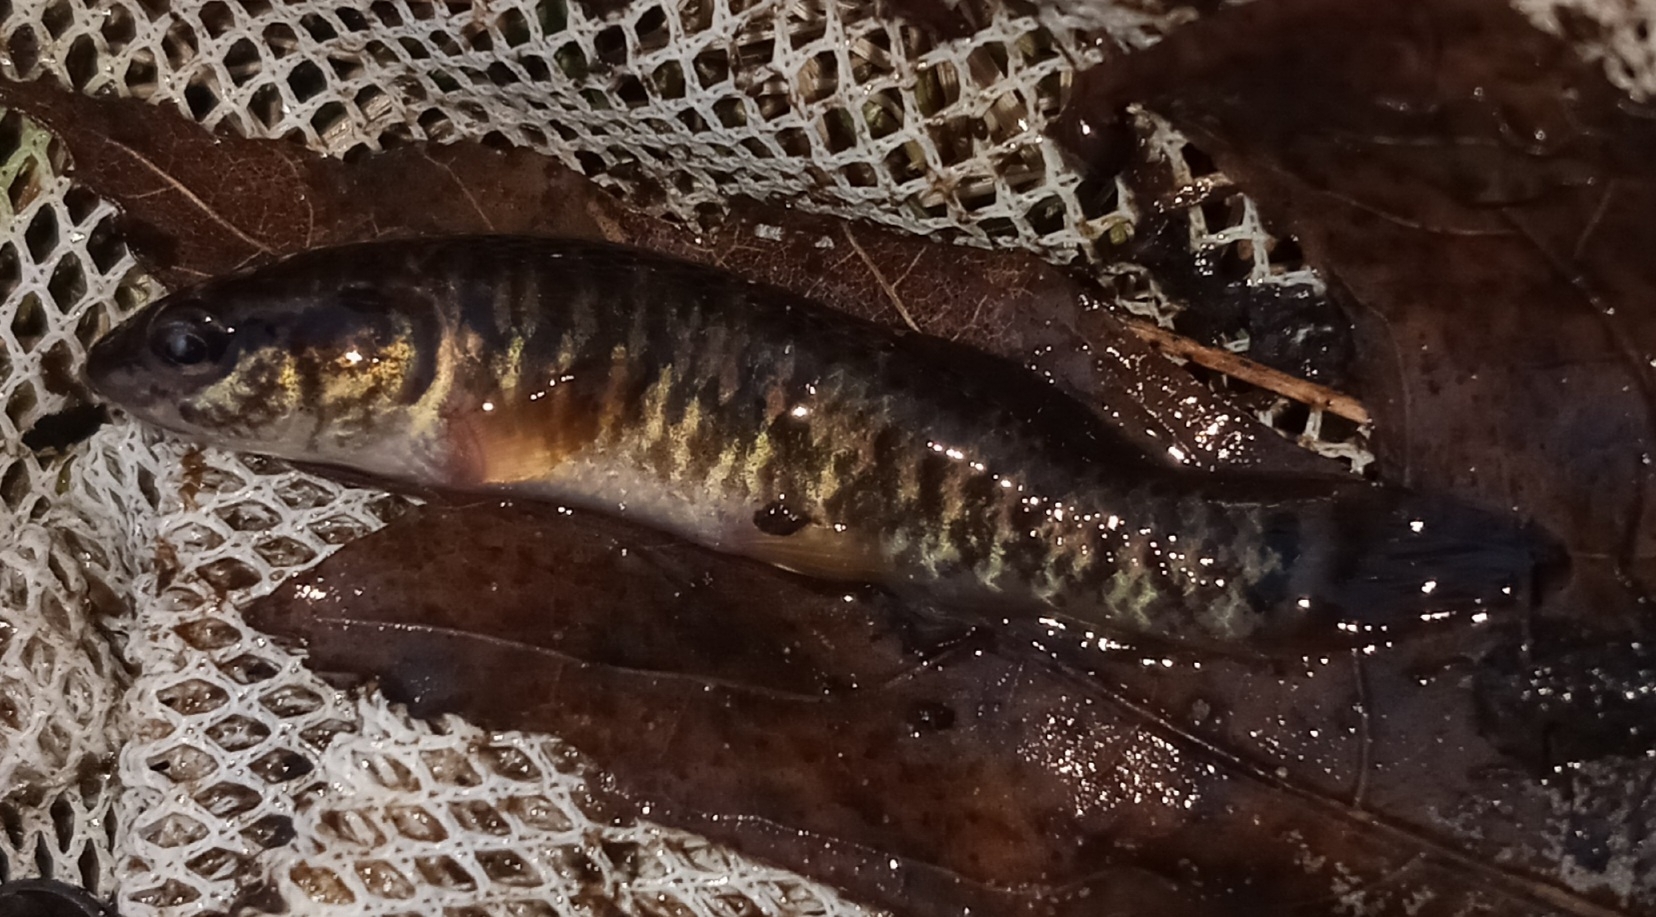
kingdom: Animalia
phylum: Chordata
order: Esociformes
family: Umbridae
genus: Umbra
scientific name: Umbra limi
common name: Central mudminnow
